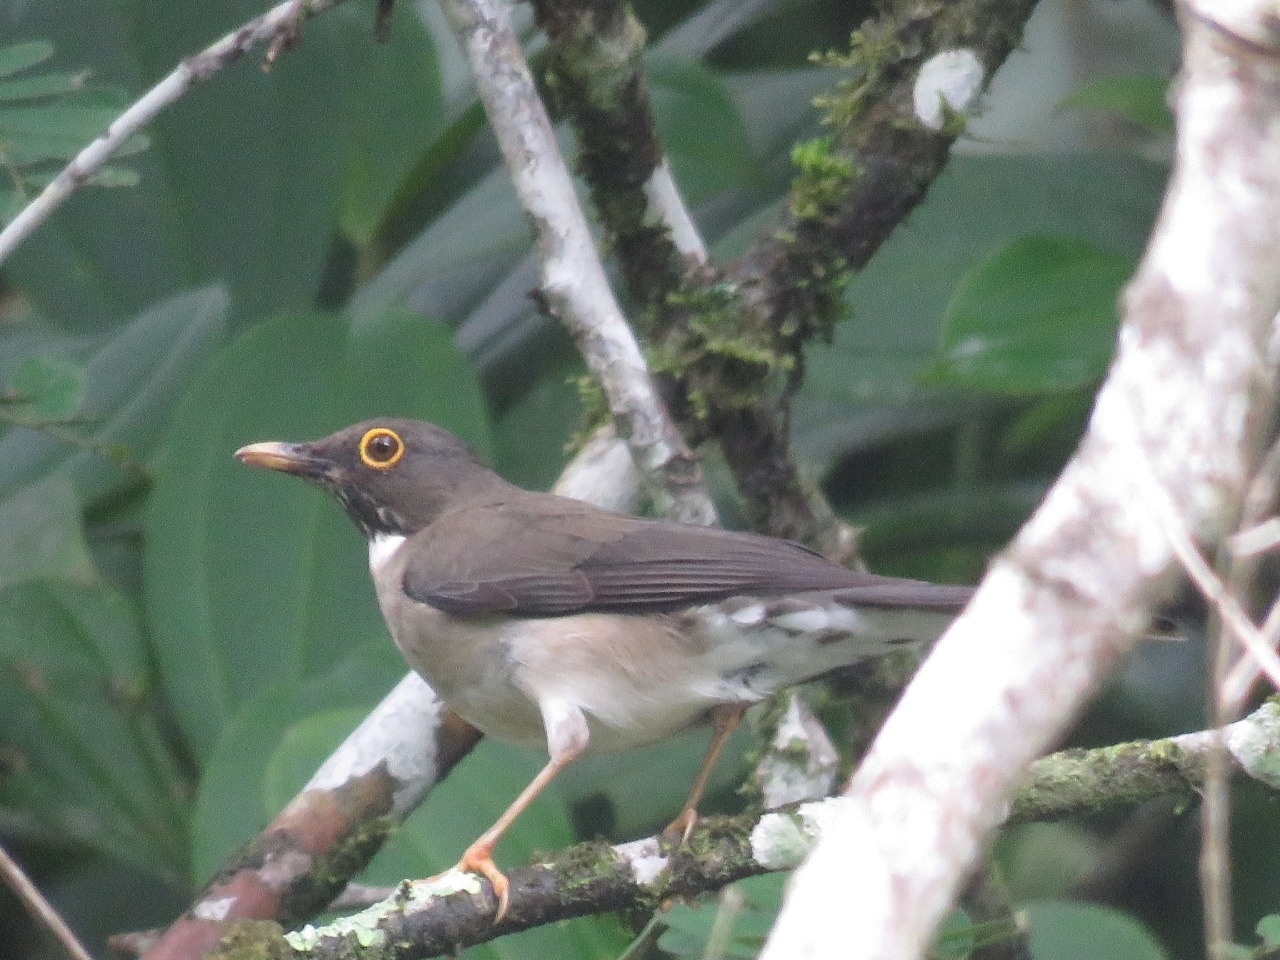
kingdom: Animalia
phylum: Chordata
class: Aves
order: Passeriformes
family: Turdidae
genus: Turdus
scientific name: Turdus assimilis
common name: White-throated thrush
